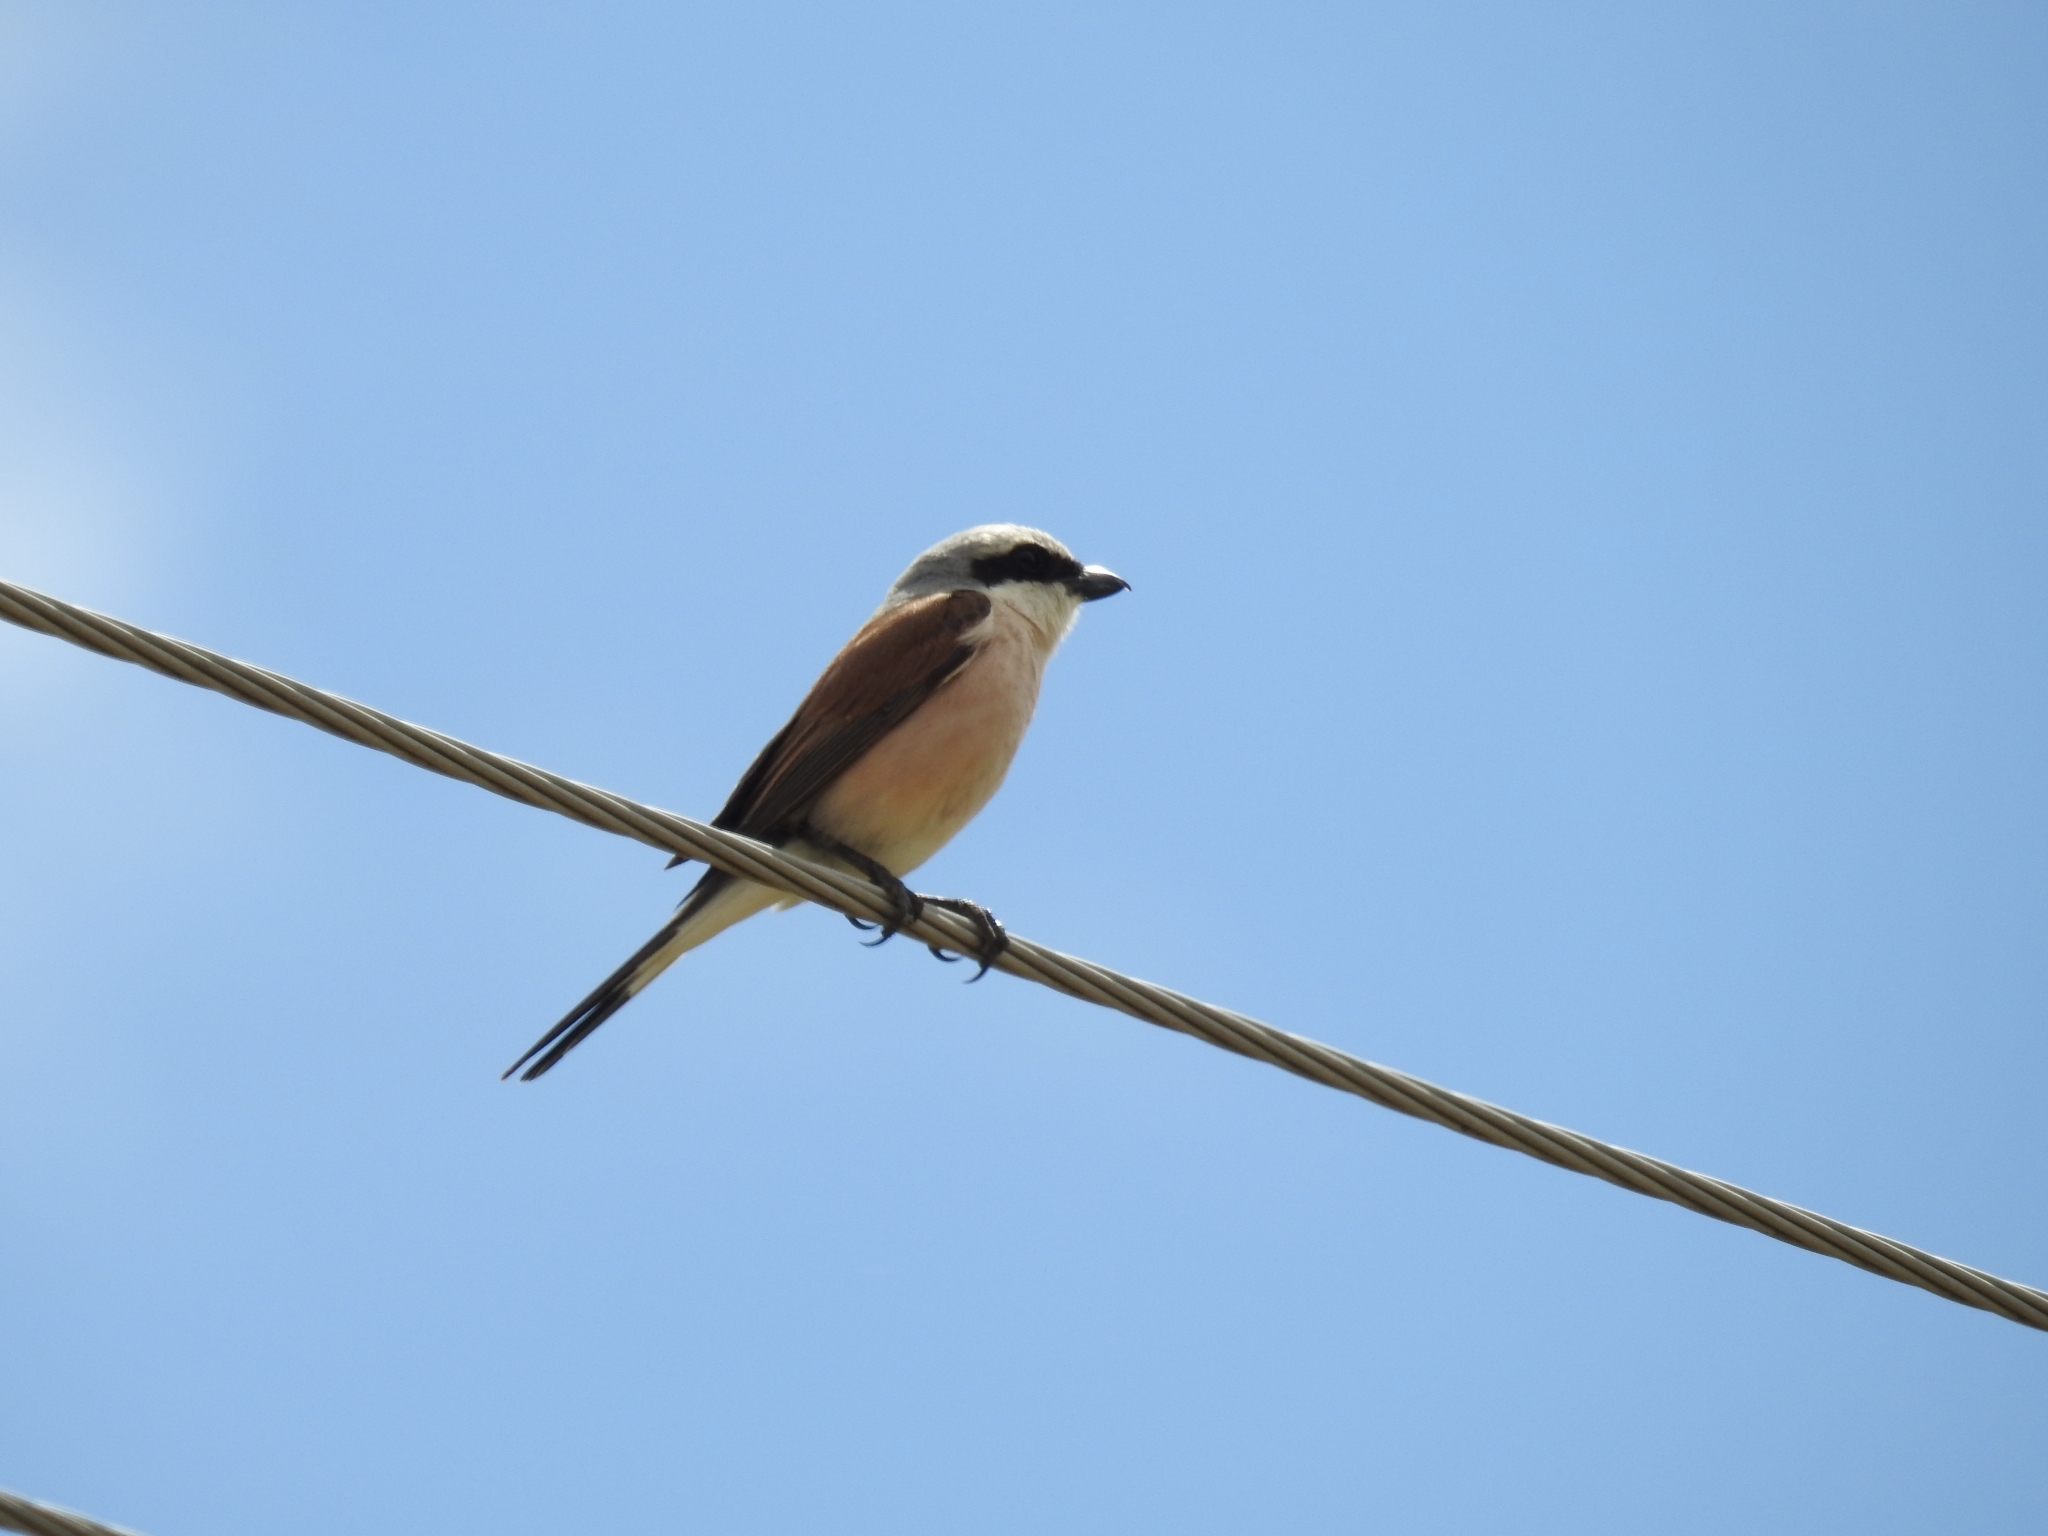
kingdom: Animalia
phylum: Chordata
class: Aves
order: Passeriformes
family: Laniidae
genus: Lanius
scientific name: Lanius collurio
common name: Red-backed shrike
